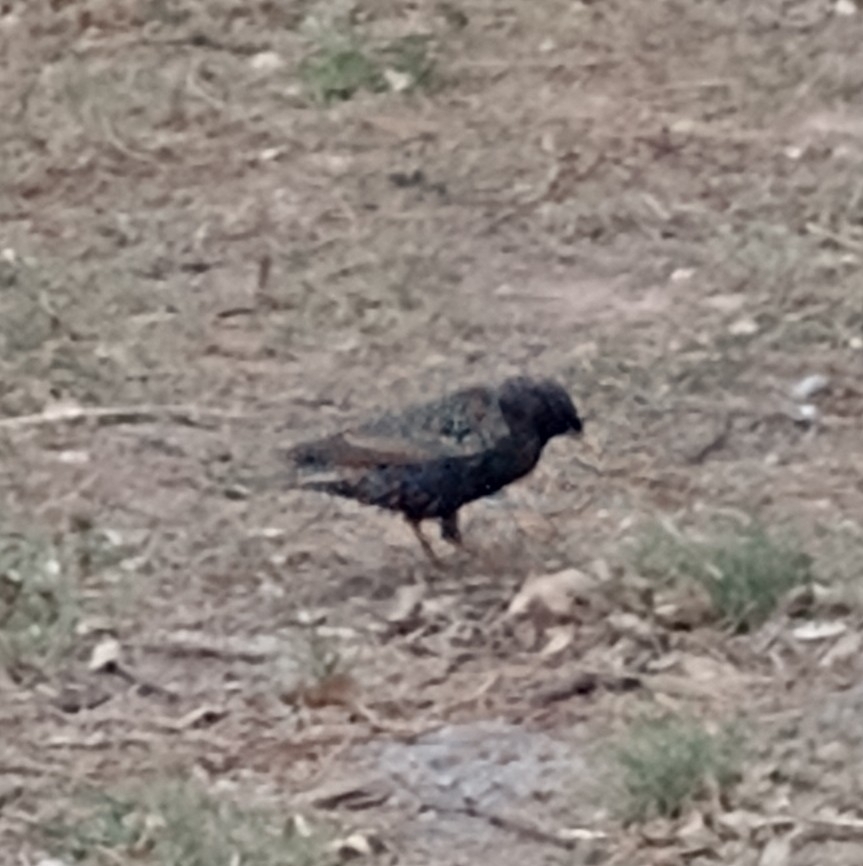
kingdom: Animalia
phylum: Chordata
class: Aves
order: Passeriformes
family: Sturnidae
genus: Sturnus
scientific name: Sturnus vulgaris
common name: Common starling
